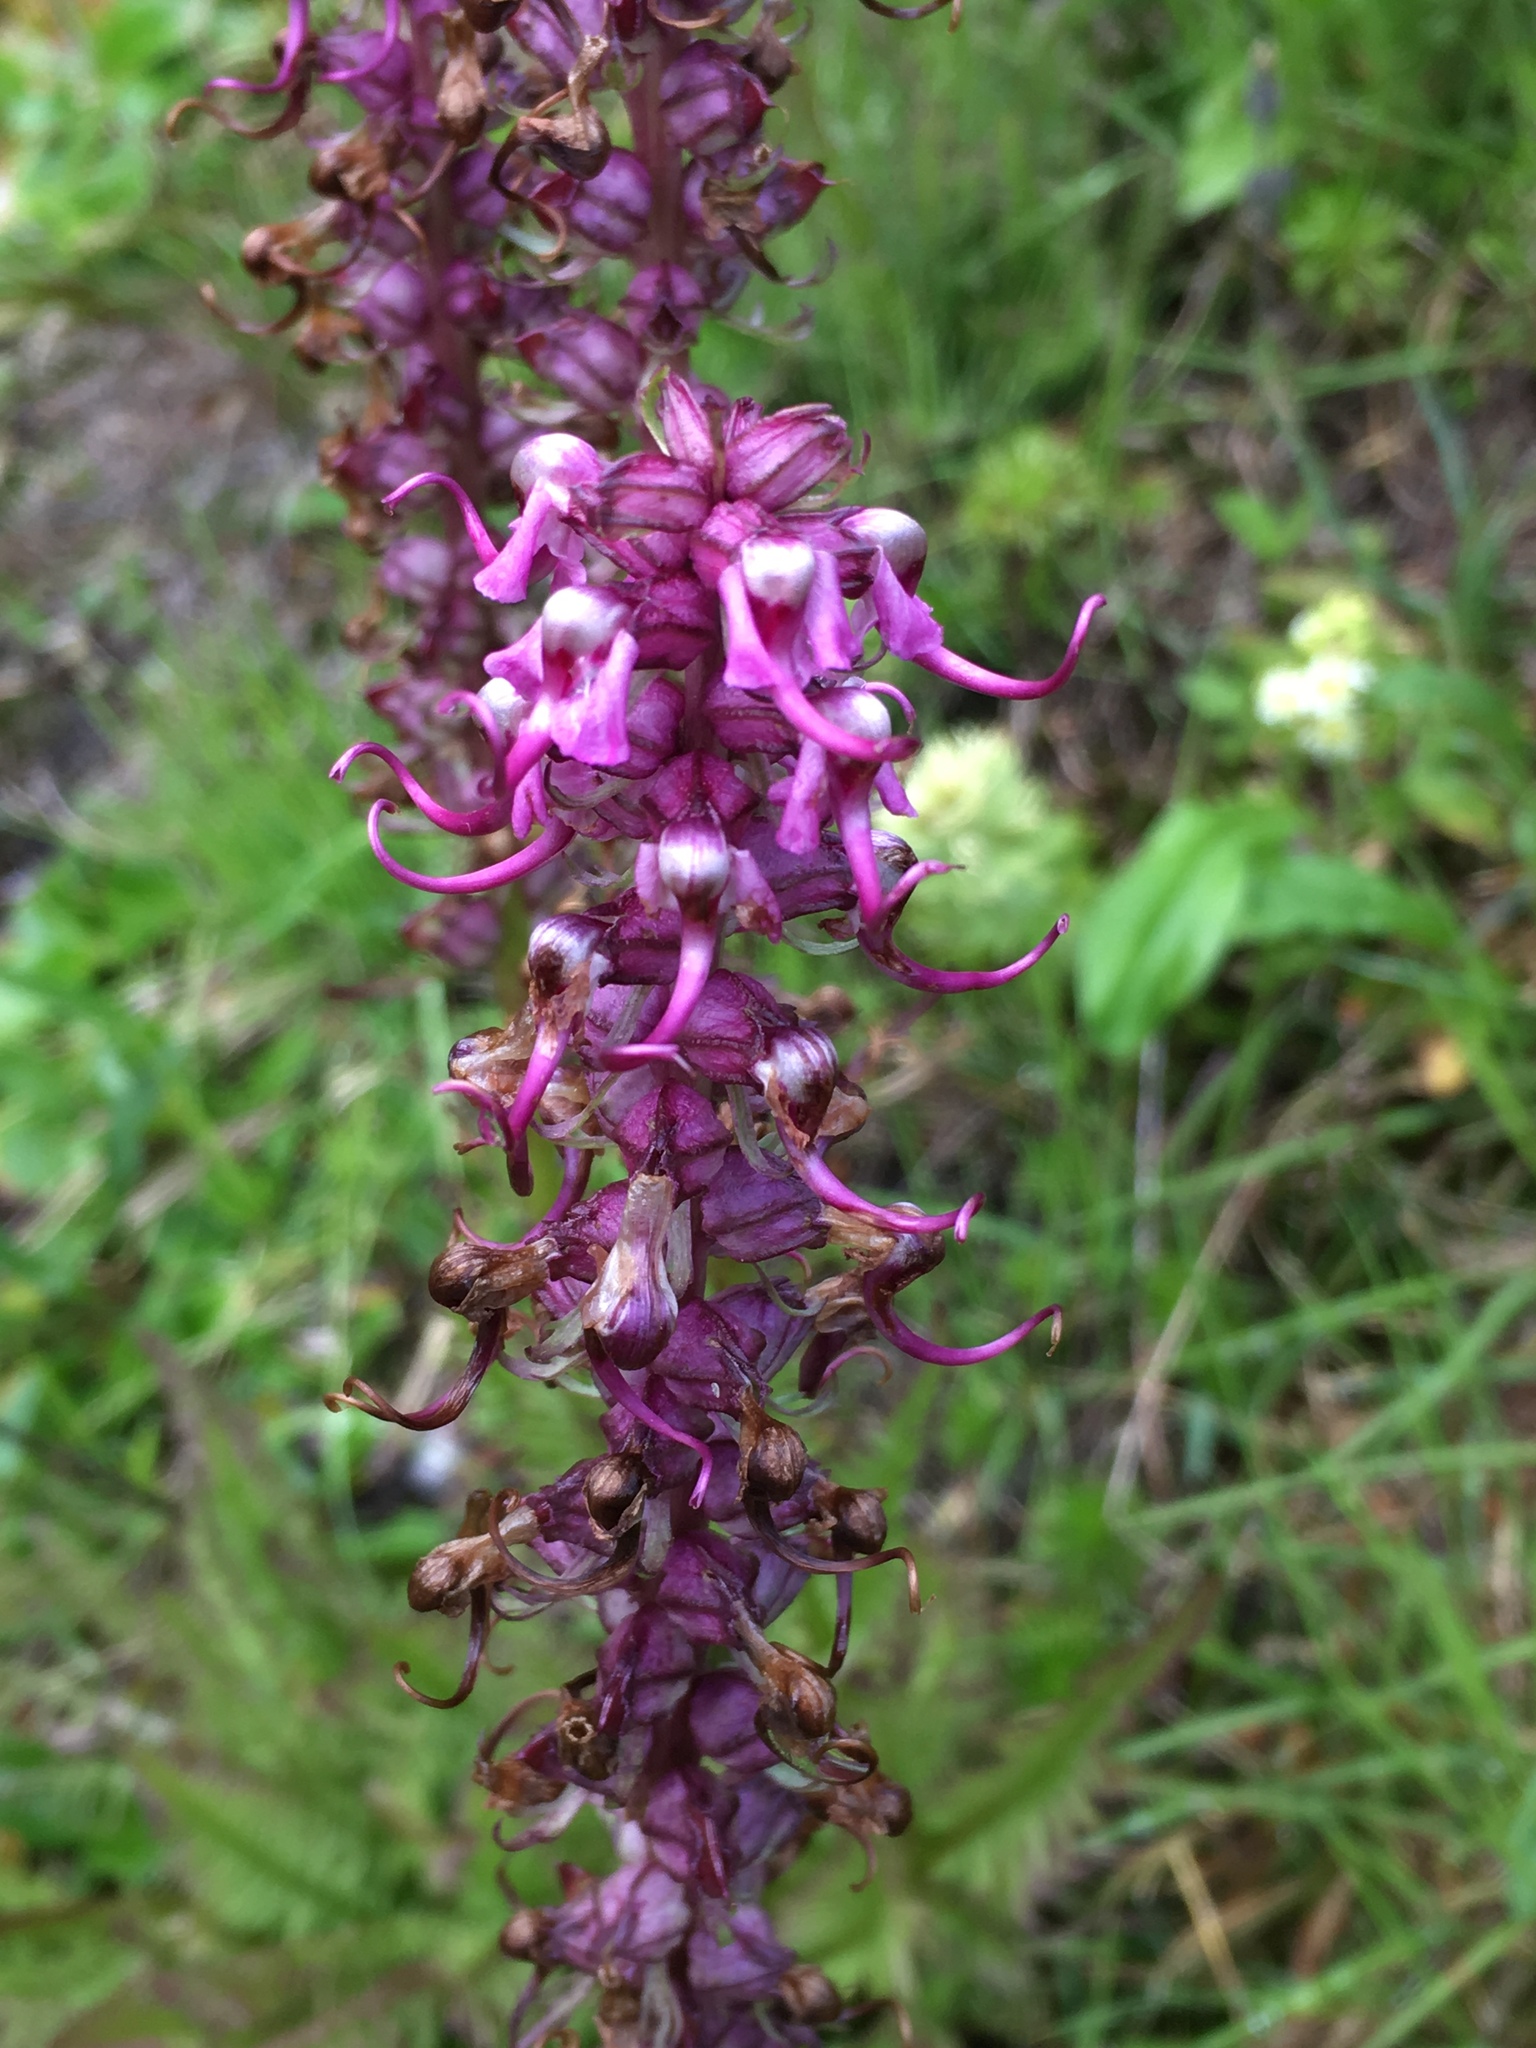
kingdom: Plantae
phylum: Tracheophyta
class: Magnoliopsida
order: Lamiales
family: Orobanchaceae
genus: Pedicularis
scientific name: Pedicularis groenlandica
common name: Elephant's-head
